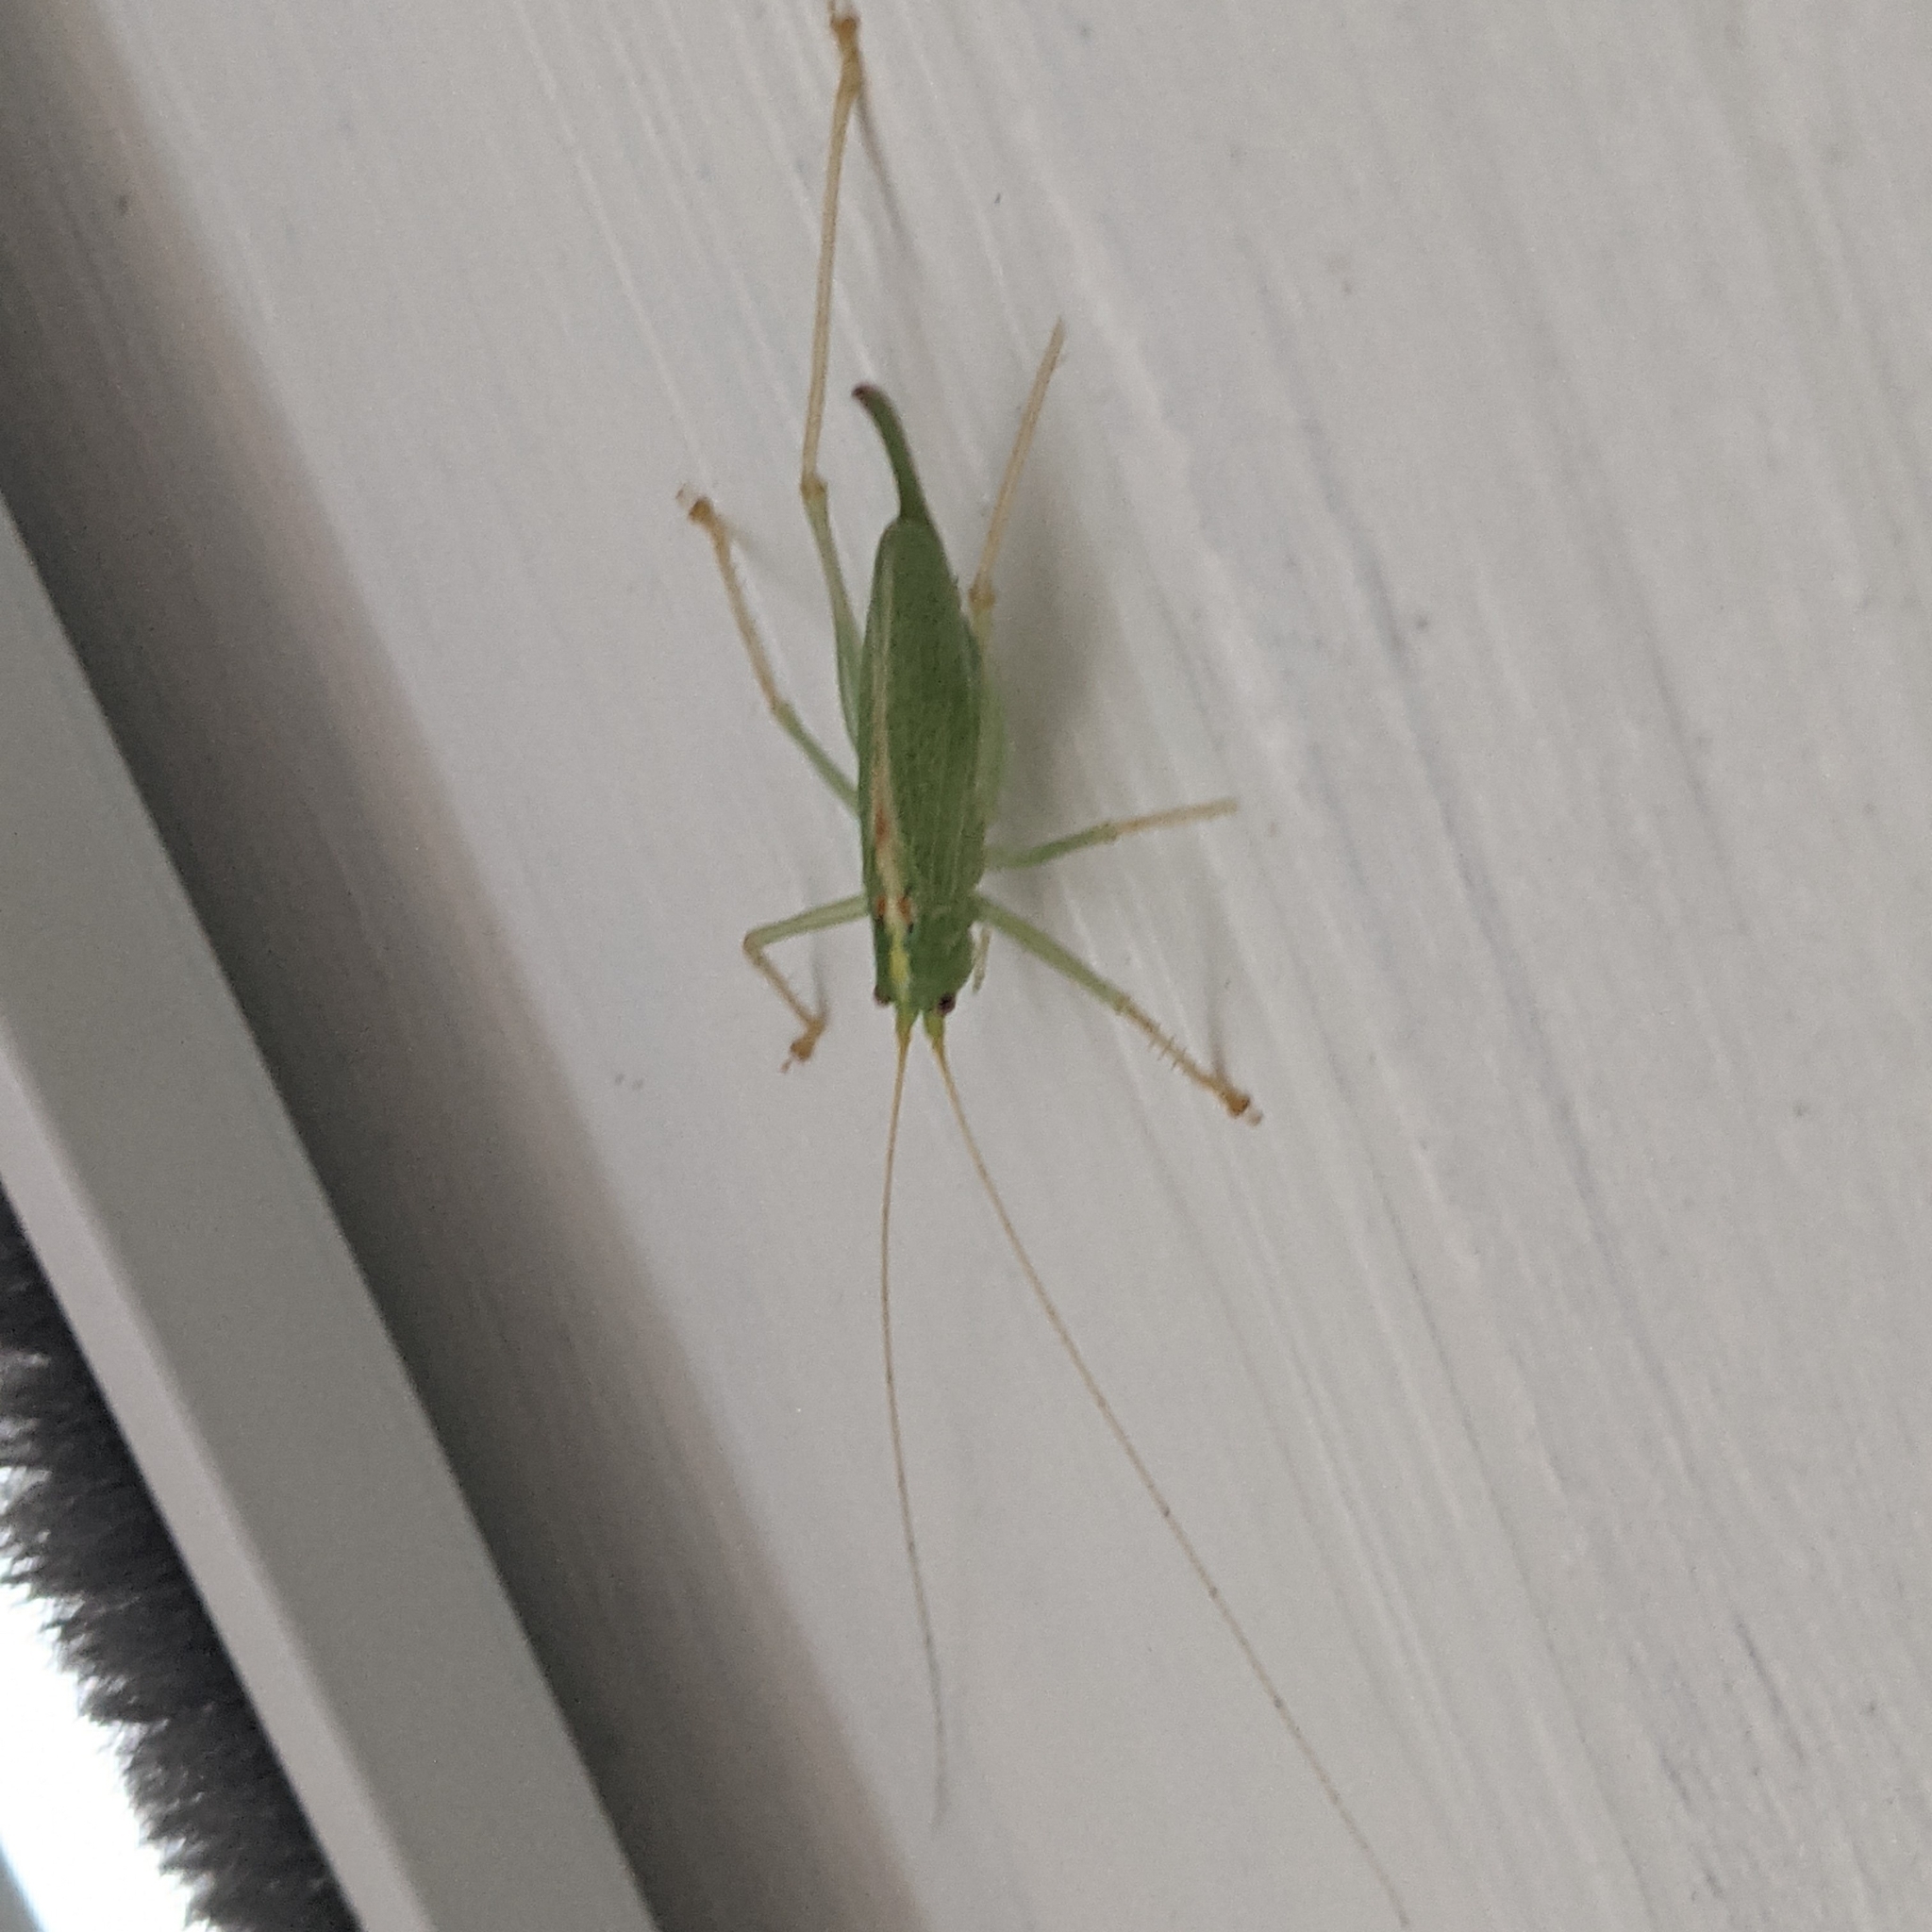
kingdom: Animalia
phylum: Arthropoda
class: Insecta
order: Orthoptera
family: Tettigoniidae
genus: Meconema
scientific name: Meconema thalassinum
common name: Oak bush-cricket
